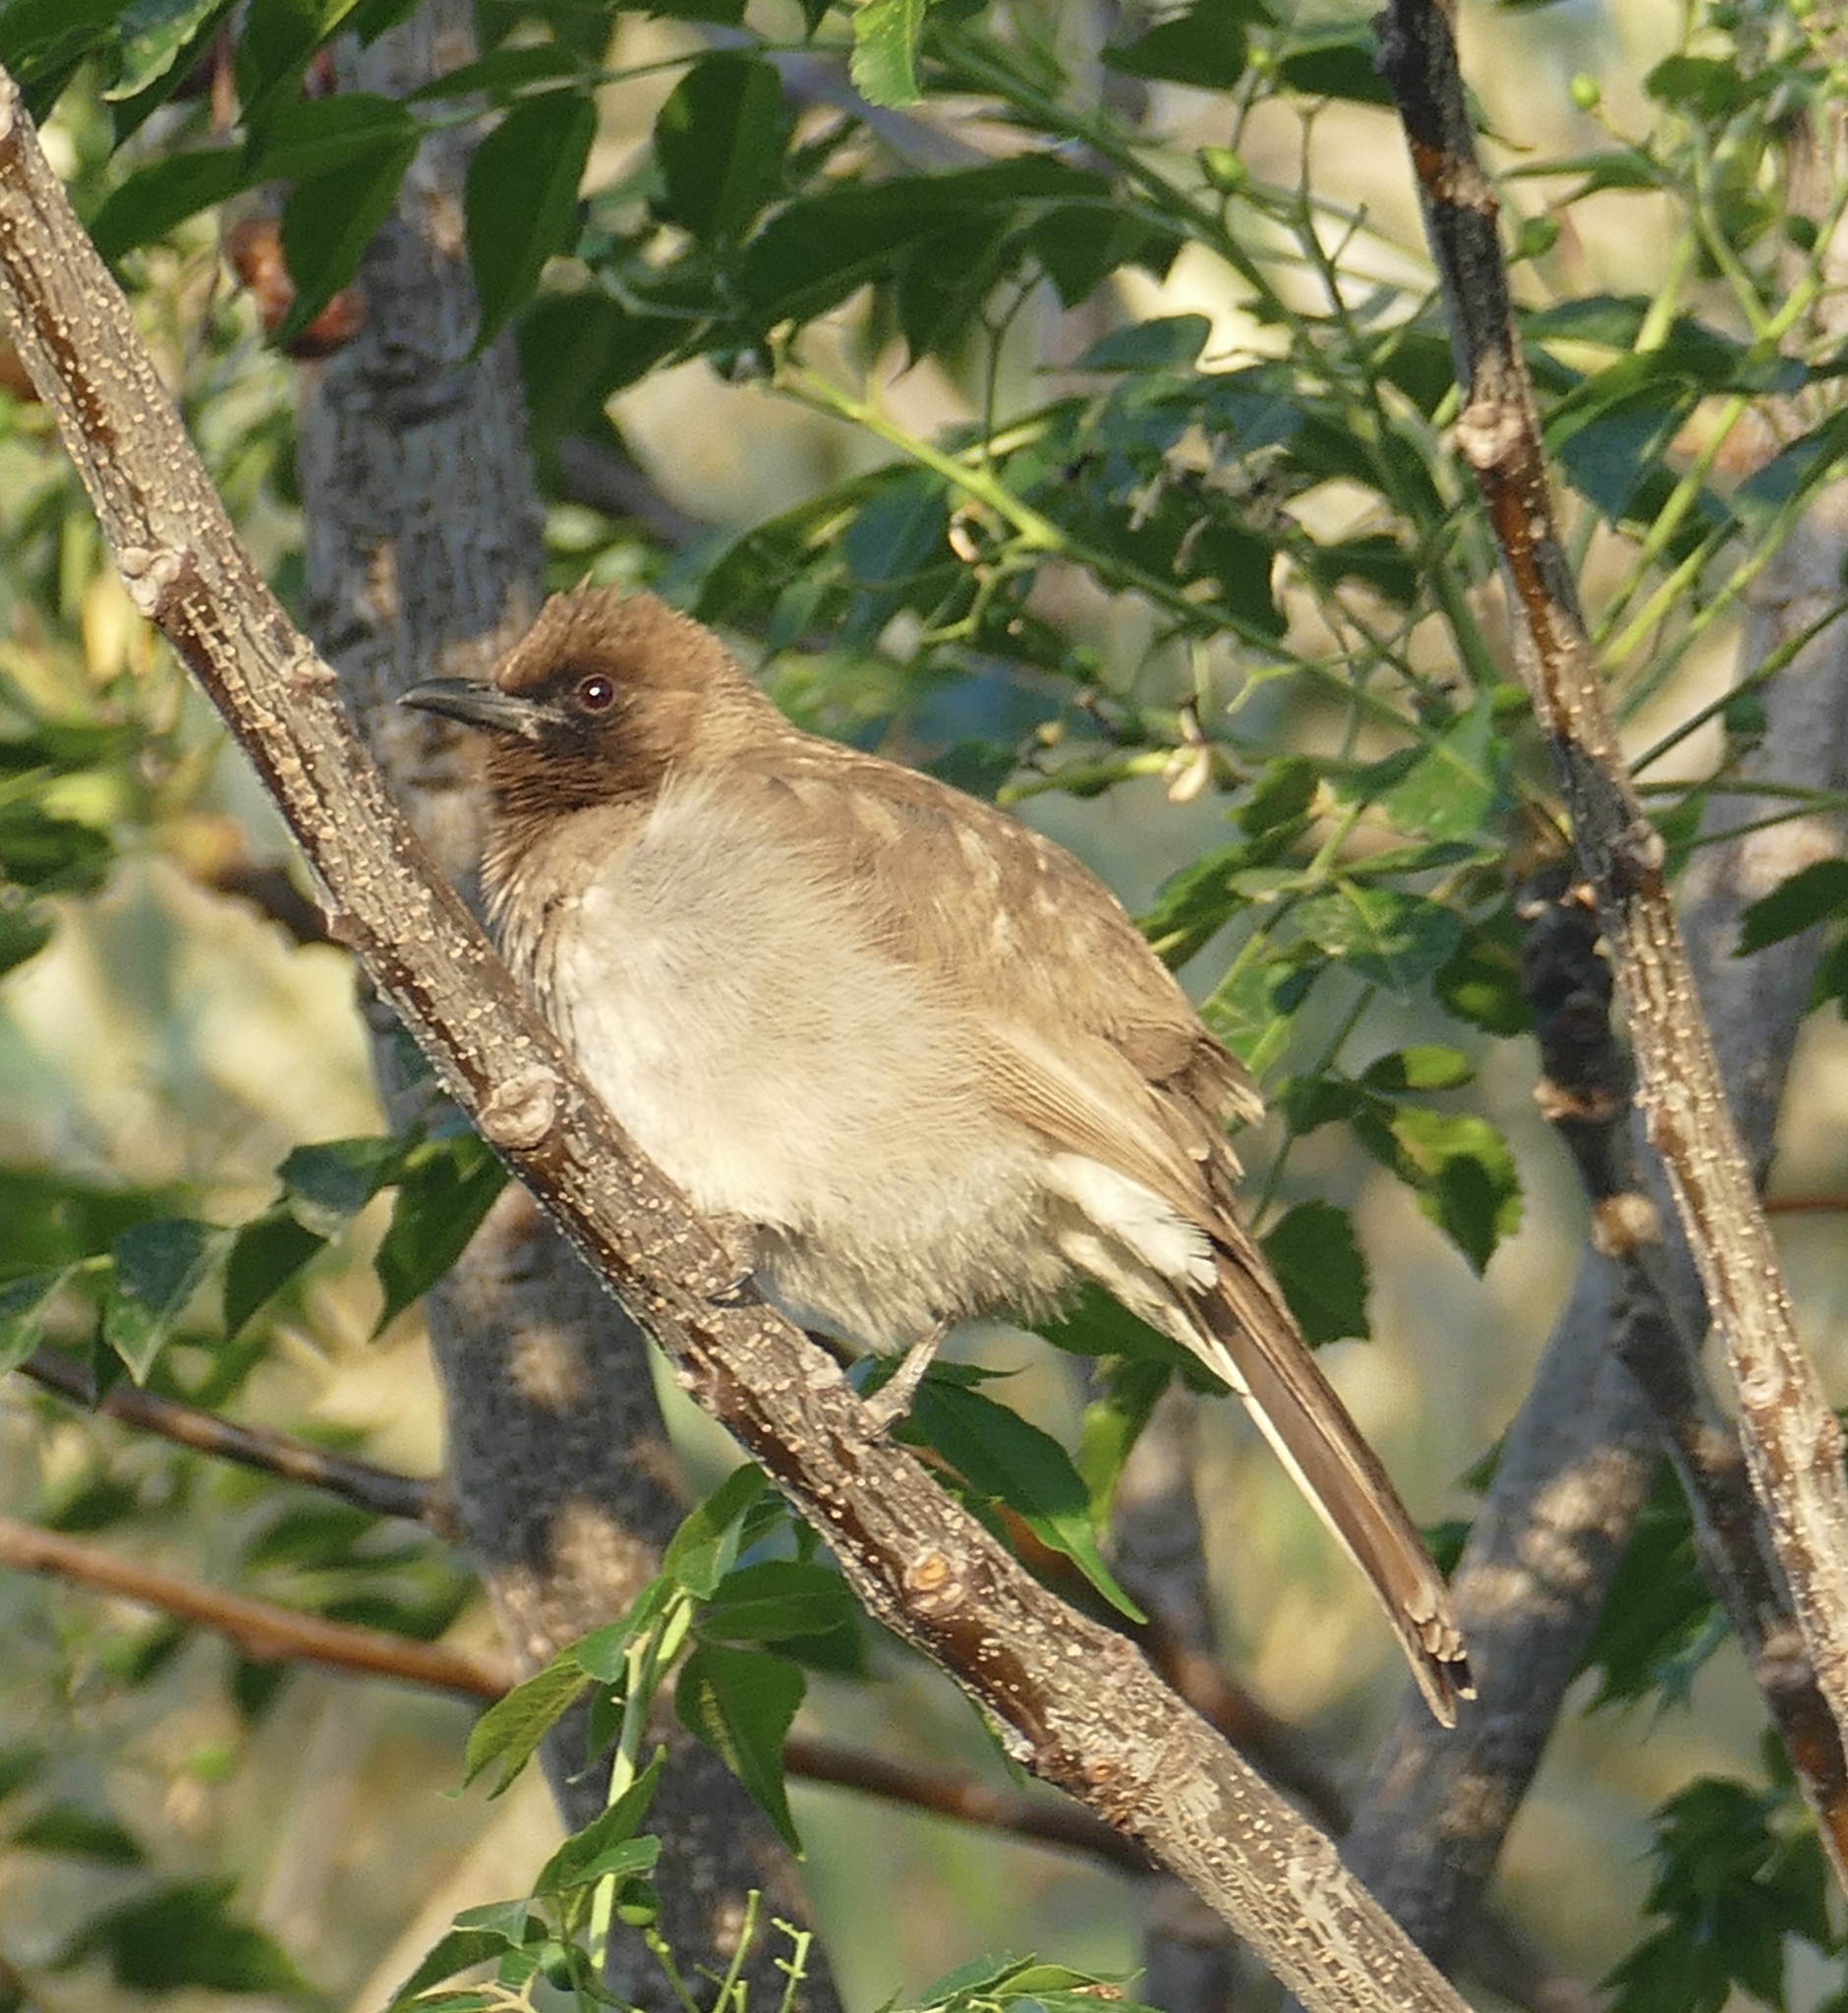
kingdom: Animalia
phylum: Chordata
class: Aves
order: Passeriformes
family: Pycnonotidae
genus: Pycnonotus
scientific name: Pycnonotus barbatus
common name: Common bulbul
